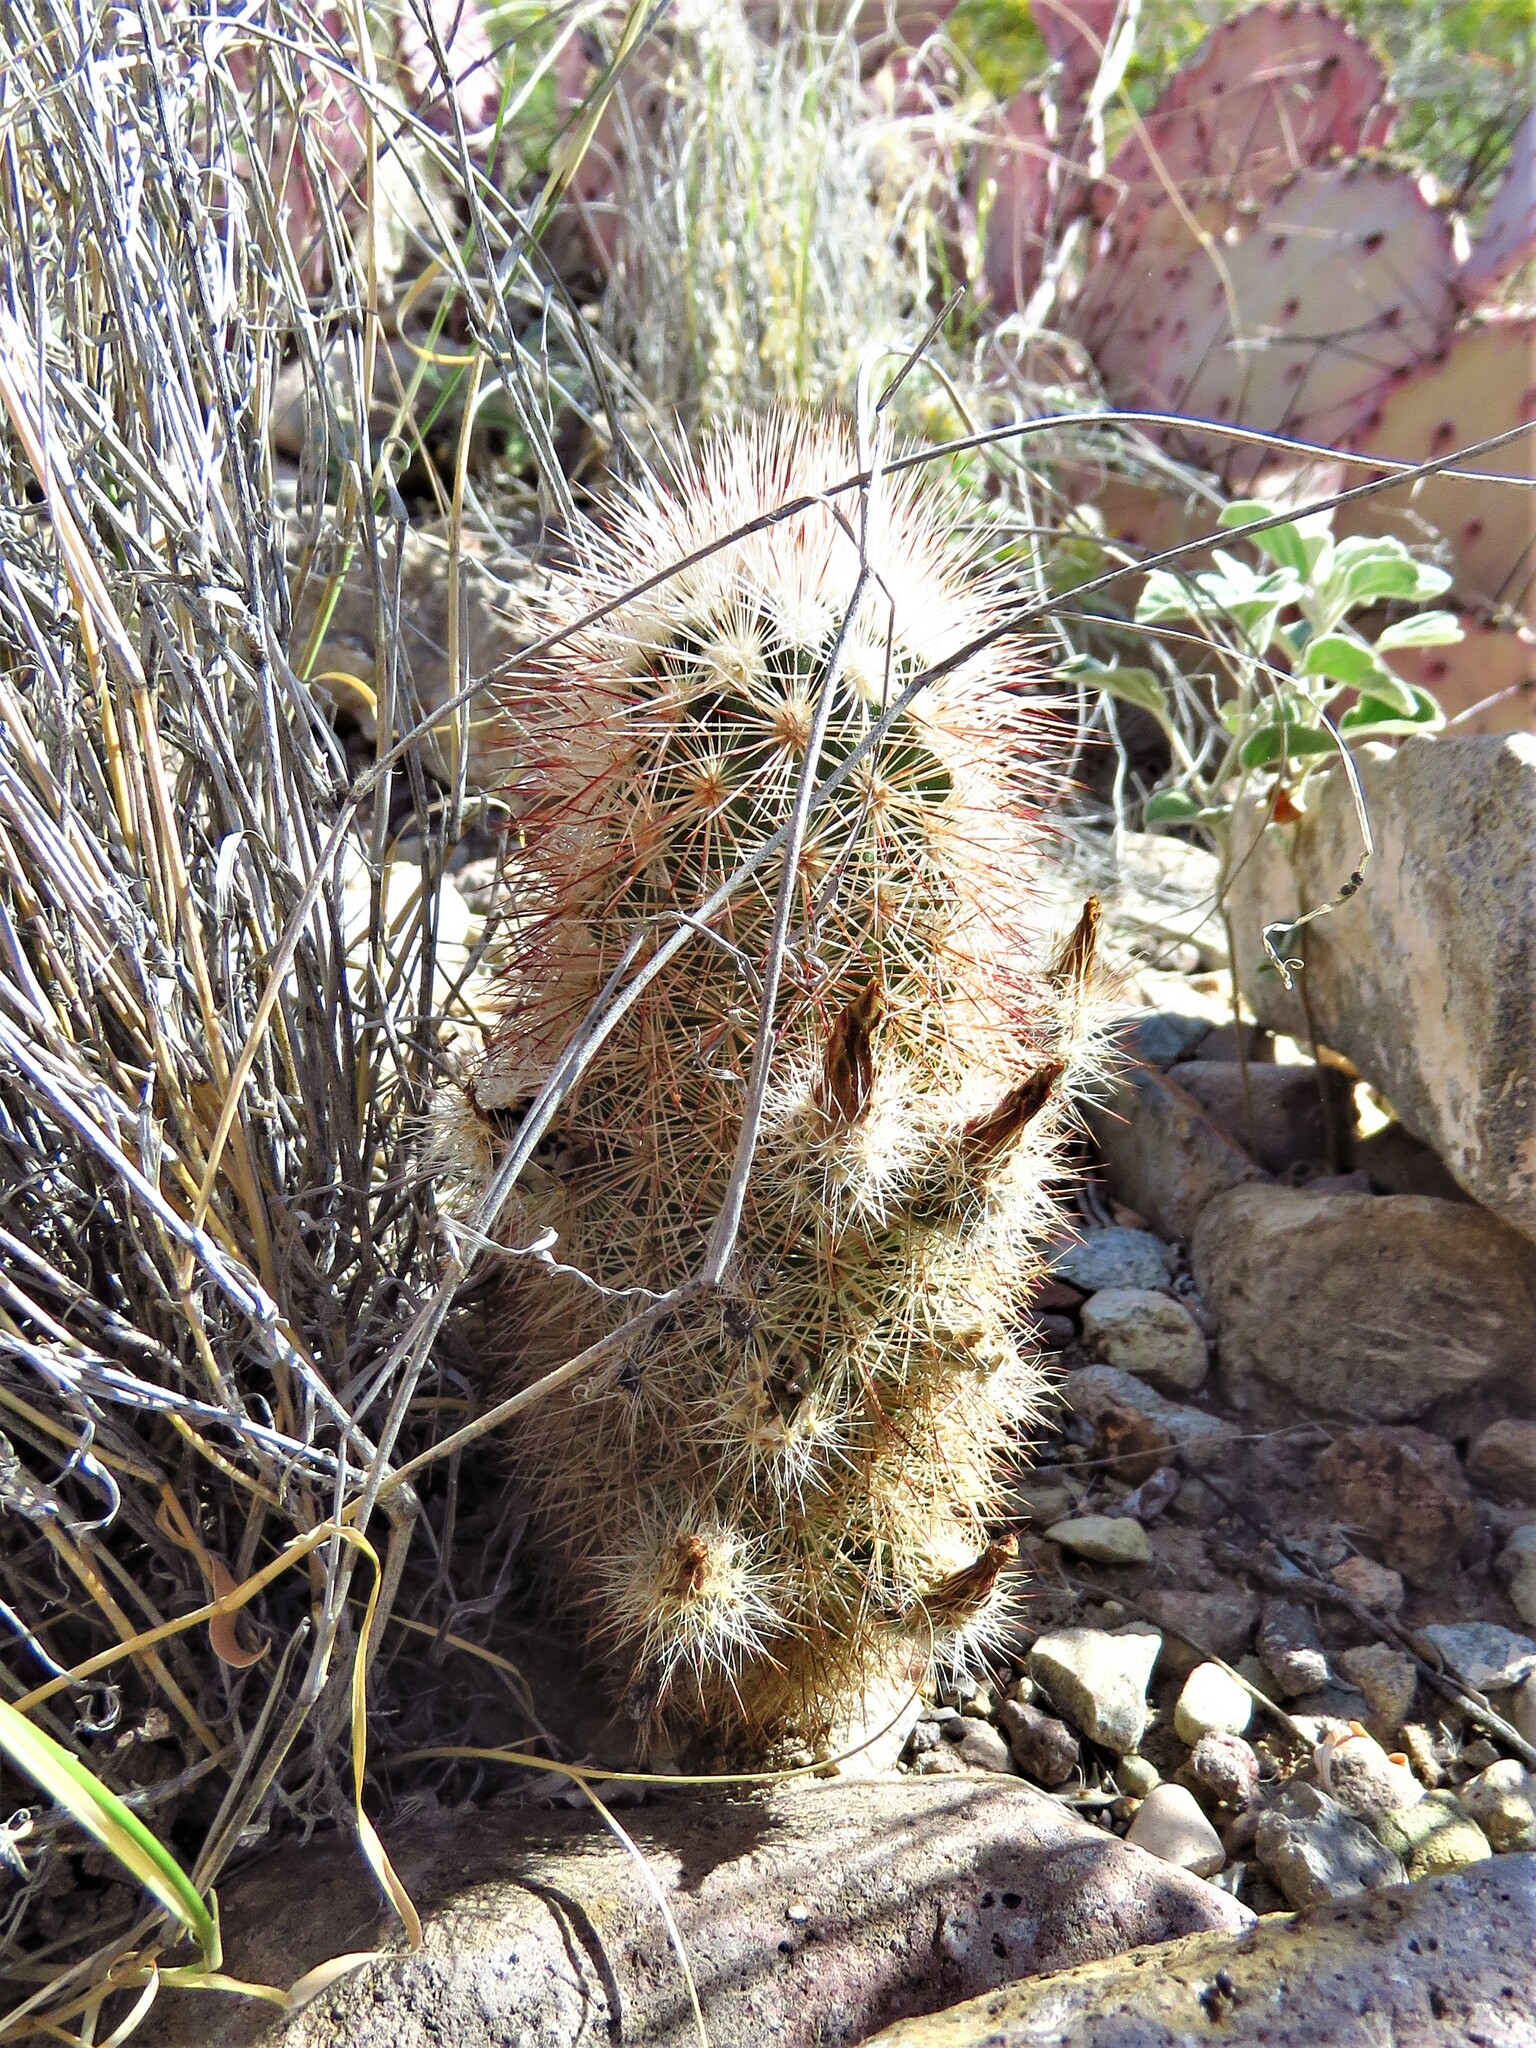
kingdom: Plantae
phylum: Tracheophyta
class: Magnoliopsida
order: Caryophyllales
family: Cactaceae
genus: Echinocereus
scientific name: Echinocereus russanthus
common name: Brownspine hedgehog cactus
